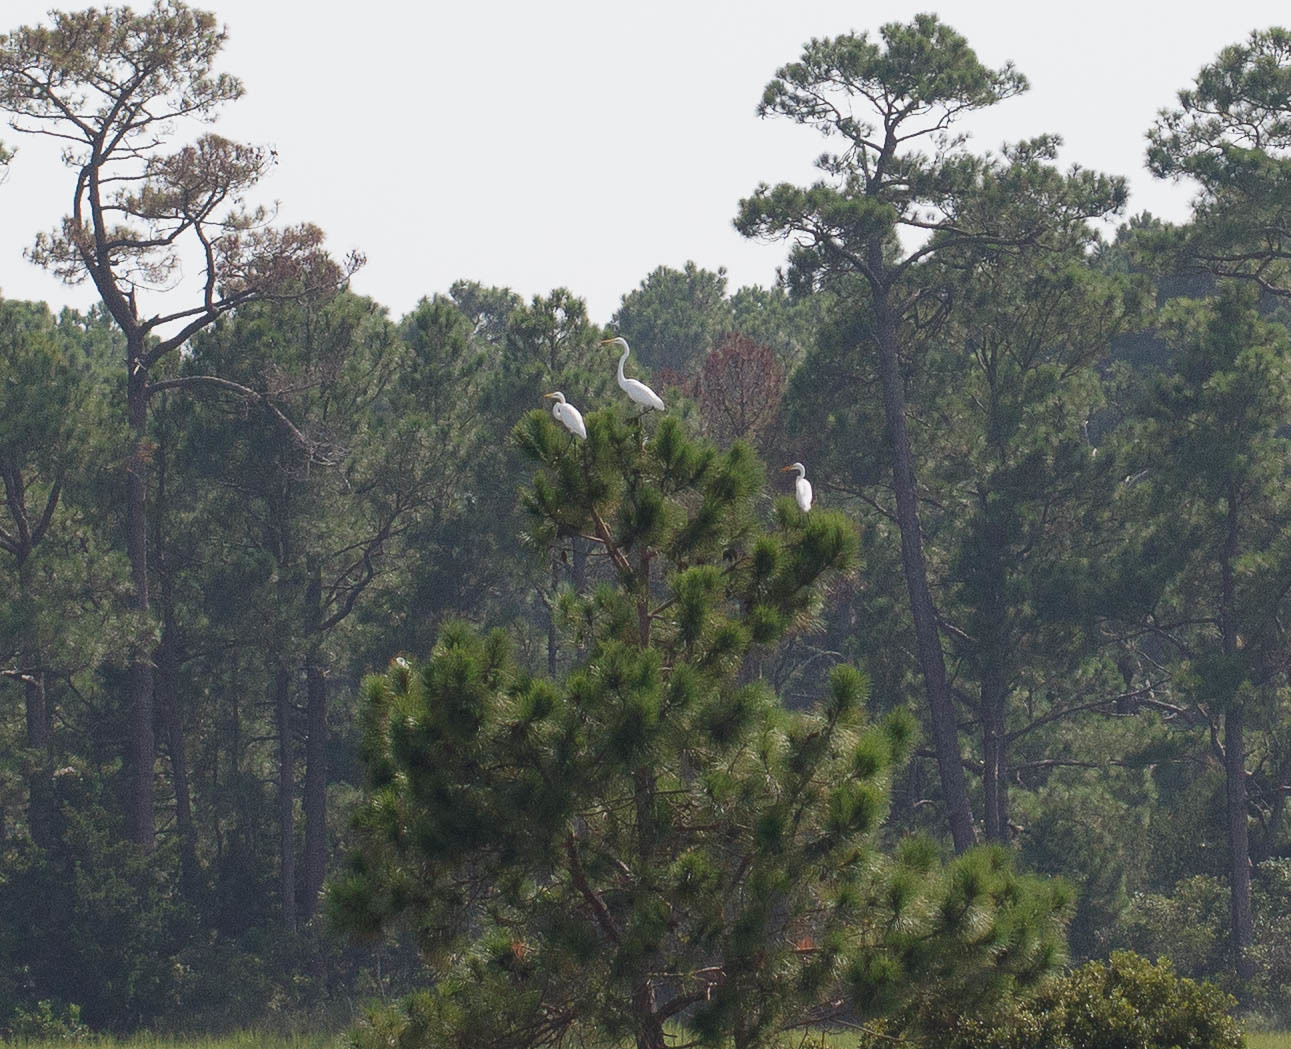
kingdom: Animalia
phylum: Chordata
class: Aves
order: Pelecaniformes
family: Ardeidae
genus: Ardea
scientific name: Ardea alba
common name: Great egret
